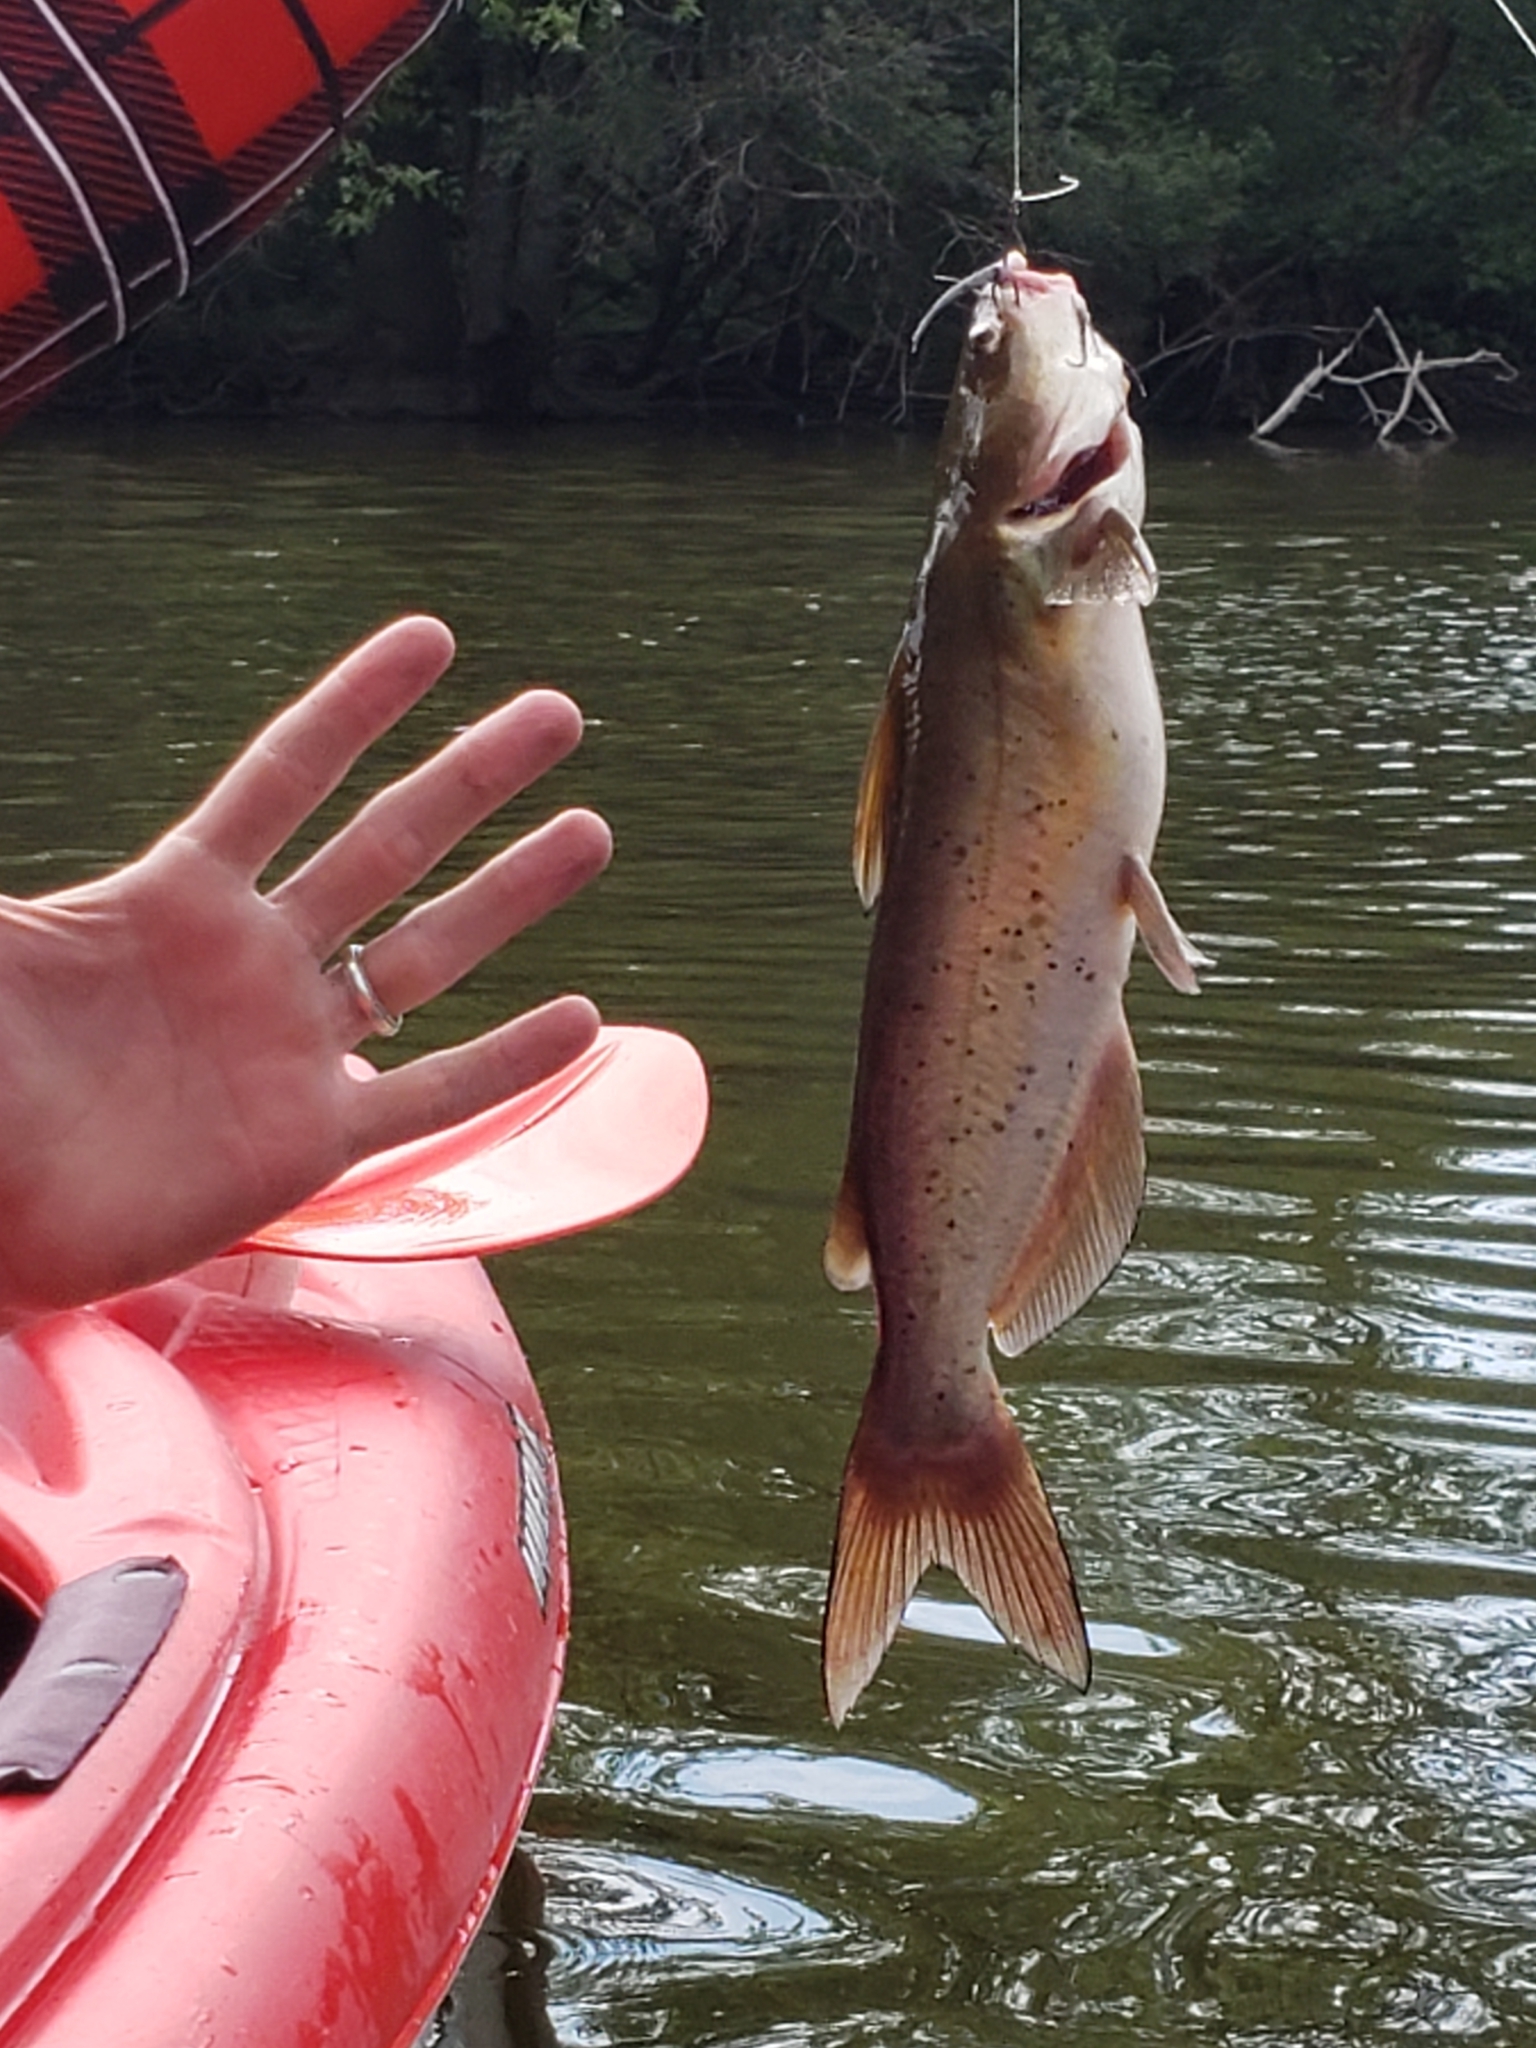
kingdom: Animalia
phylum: Chordata
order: Siluriformes
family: Ictaluridae
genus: Ictalurus
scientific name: Ictalurus punctatus
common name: Channel catfish
